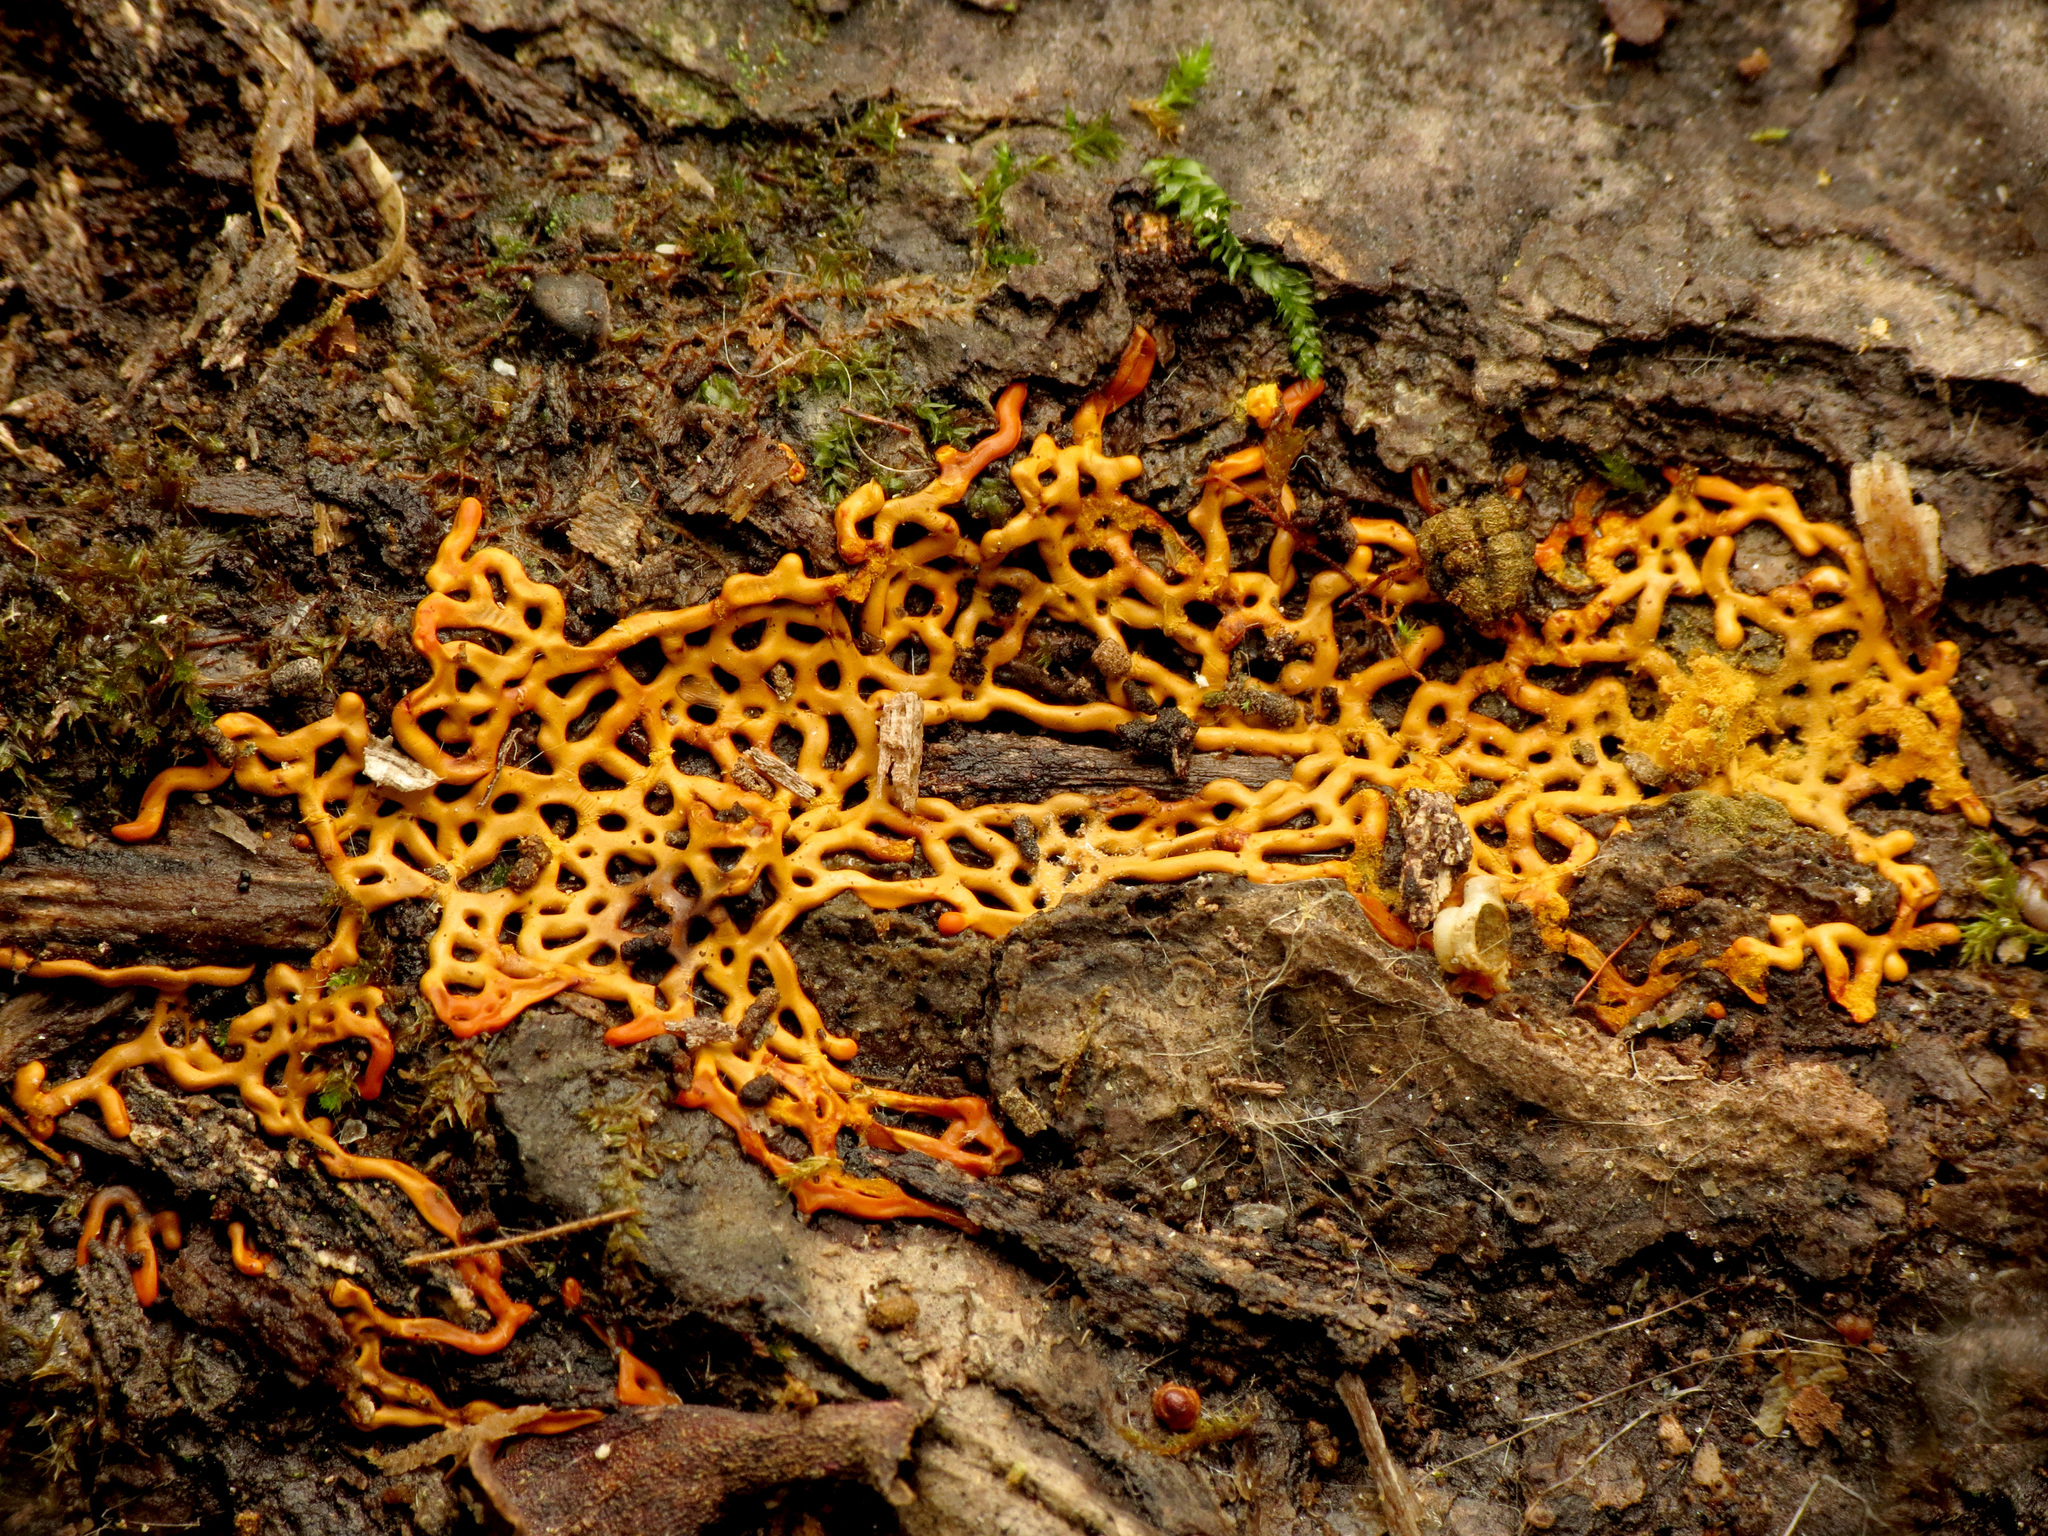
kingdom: Protozoa
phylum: Mycetozoa
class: Myxomycetes
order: Trichiales
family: Arcyriaceae
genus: Hemitrichia
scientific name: Hemitrichia serpula
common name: Pretzel slime mold
